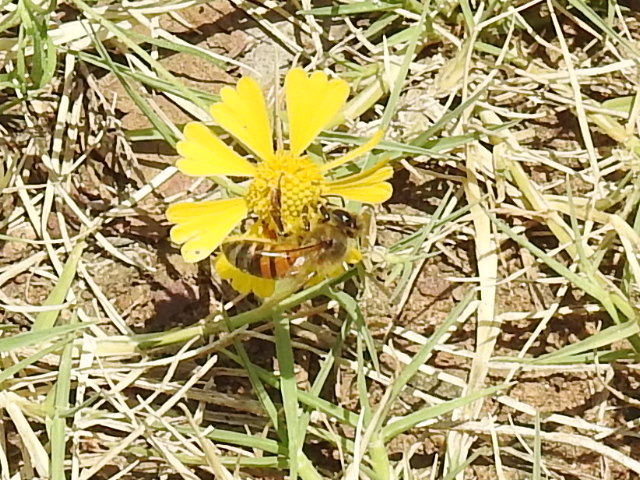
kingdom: Animalia
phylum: Arthropoda
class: Insecta
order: Hymenoptera
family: Apidae
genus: Apis
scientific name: Apis mellifera
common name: Honey bee
